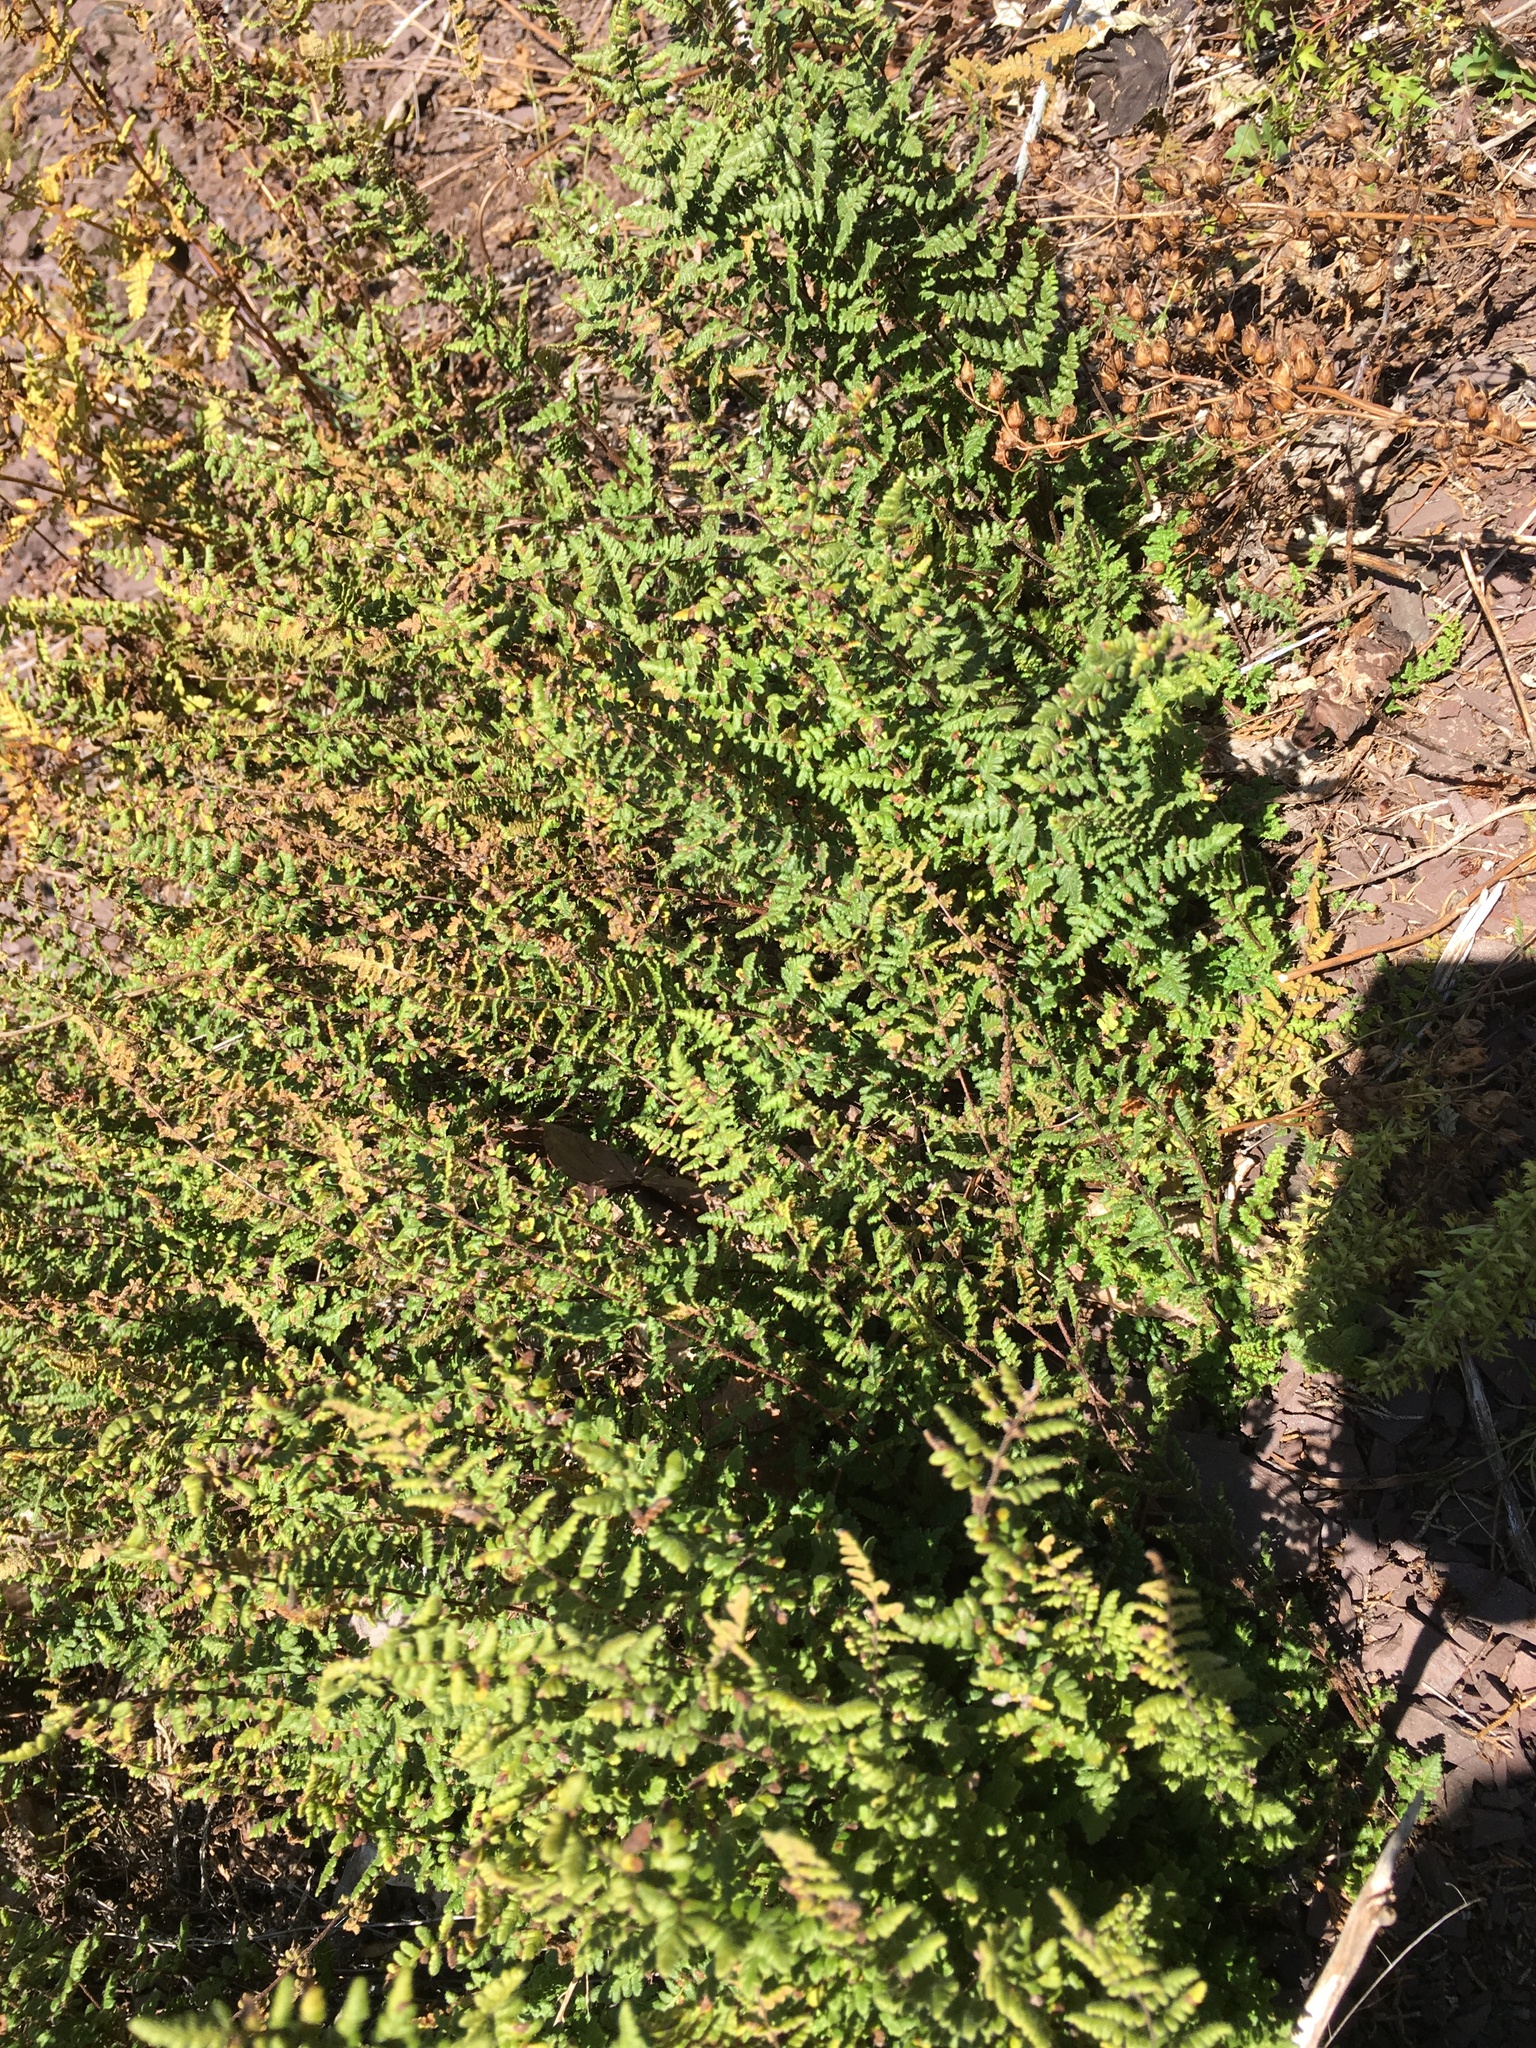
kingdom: Plantae
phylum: Tracheophyta
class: Polypodiopsida
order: Polypodiales
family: Pteridaceae
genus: Myriopteris
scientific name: Myriopteris lanosa
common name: Hairy lip fern
